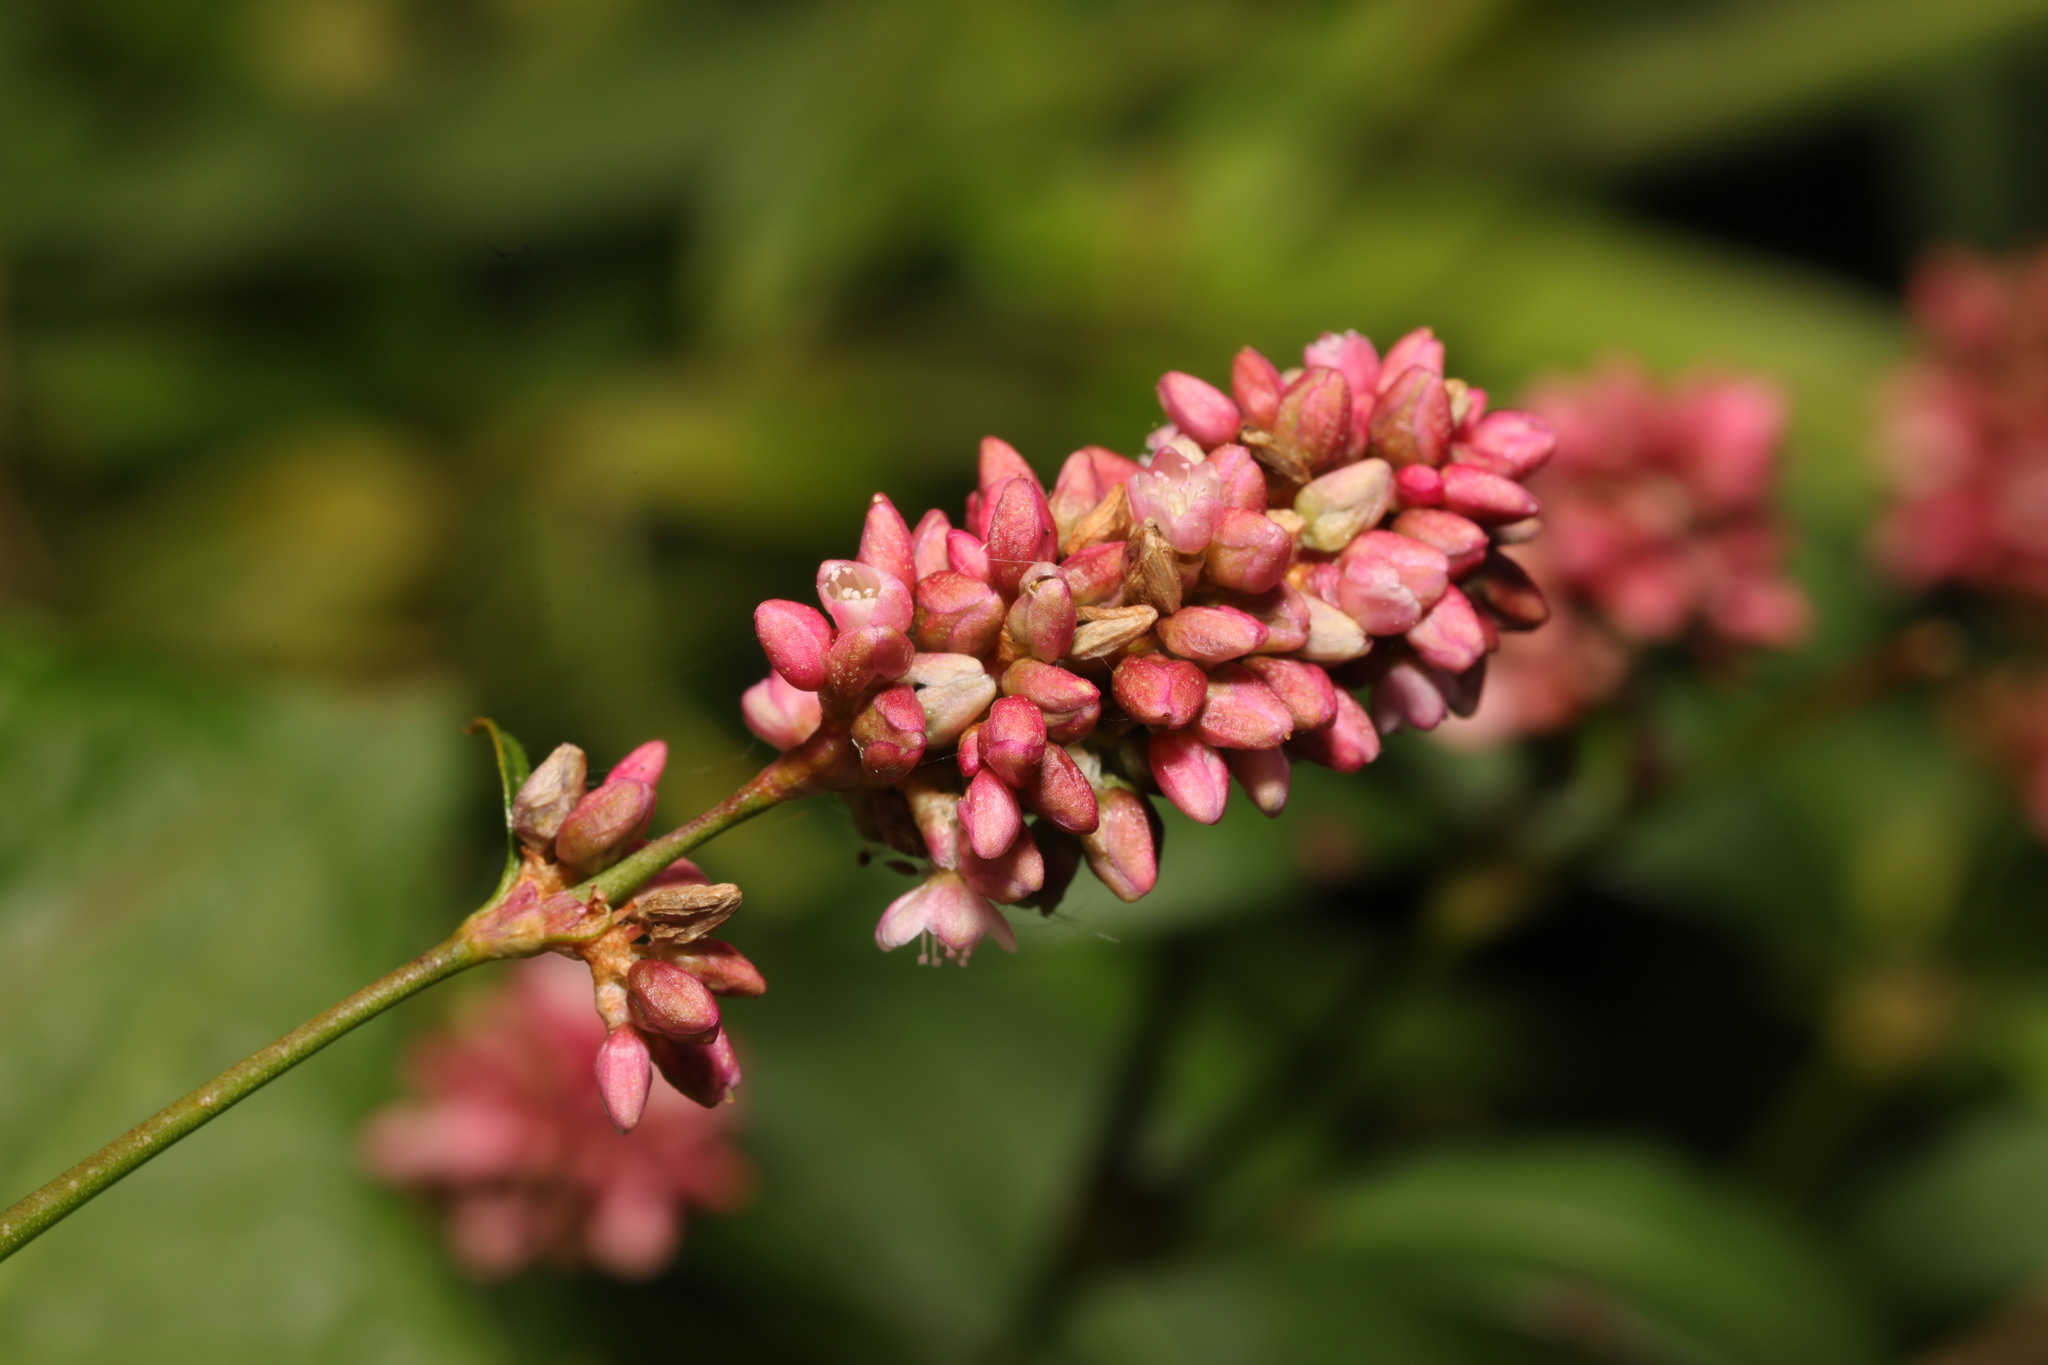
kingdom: Plantae
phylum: Tracheophyta
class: Magnoliopsida
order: Caryophyllales
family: Polygonaceae
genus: Persicaria
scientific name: Persicaria maculosa
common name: Redshank
